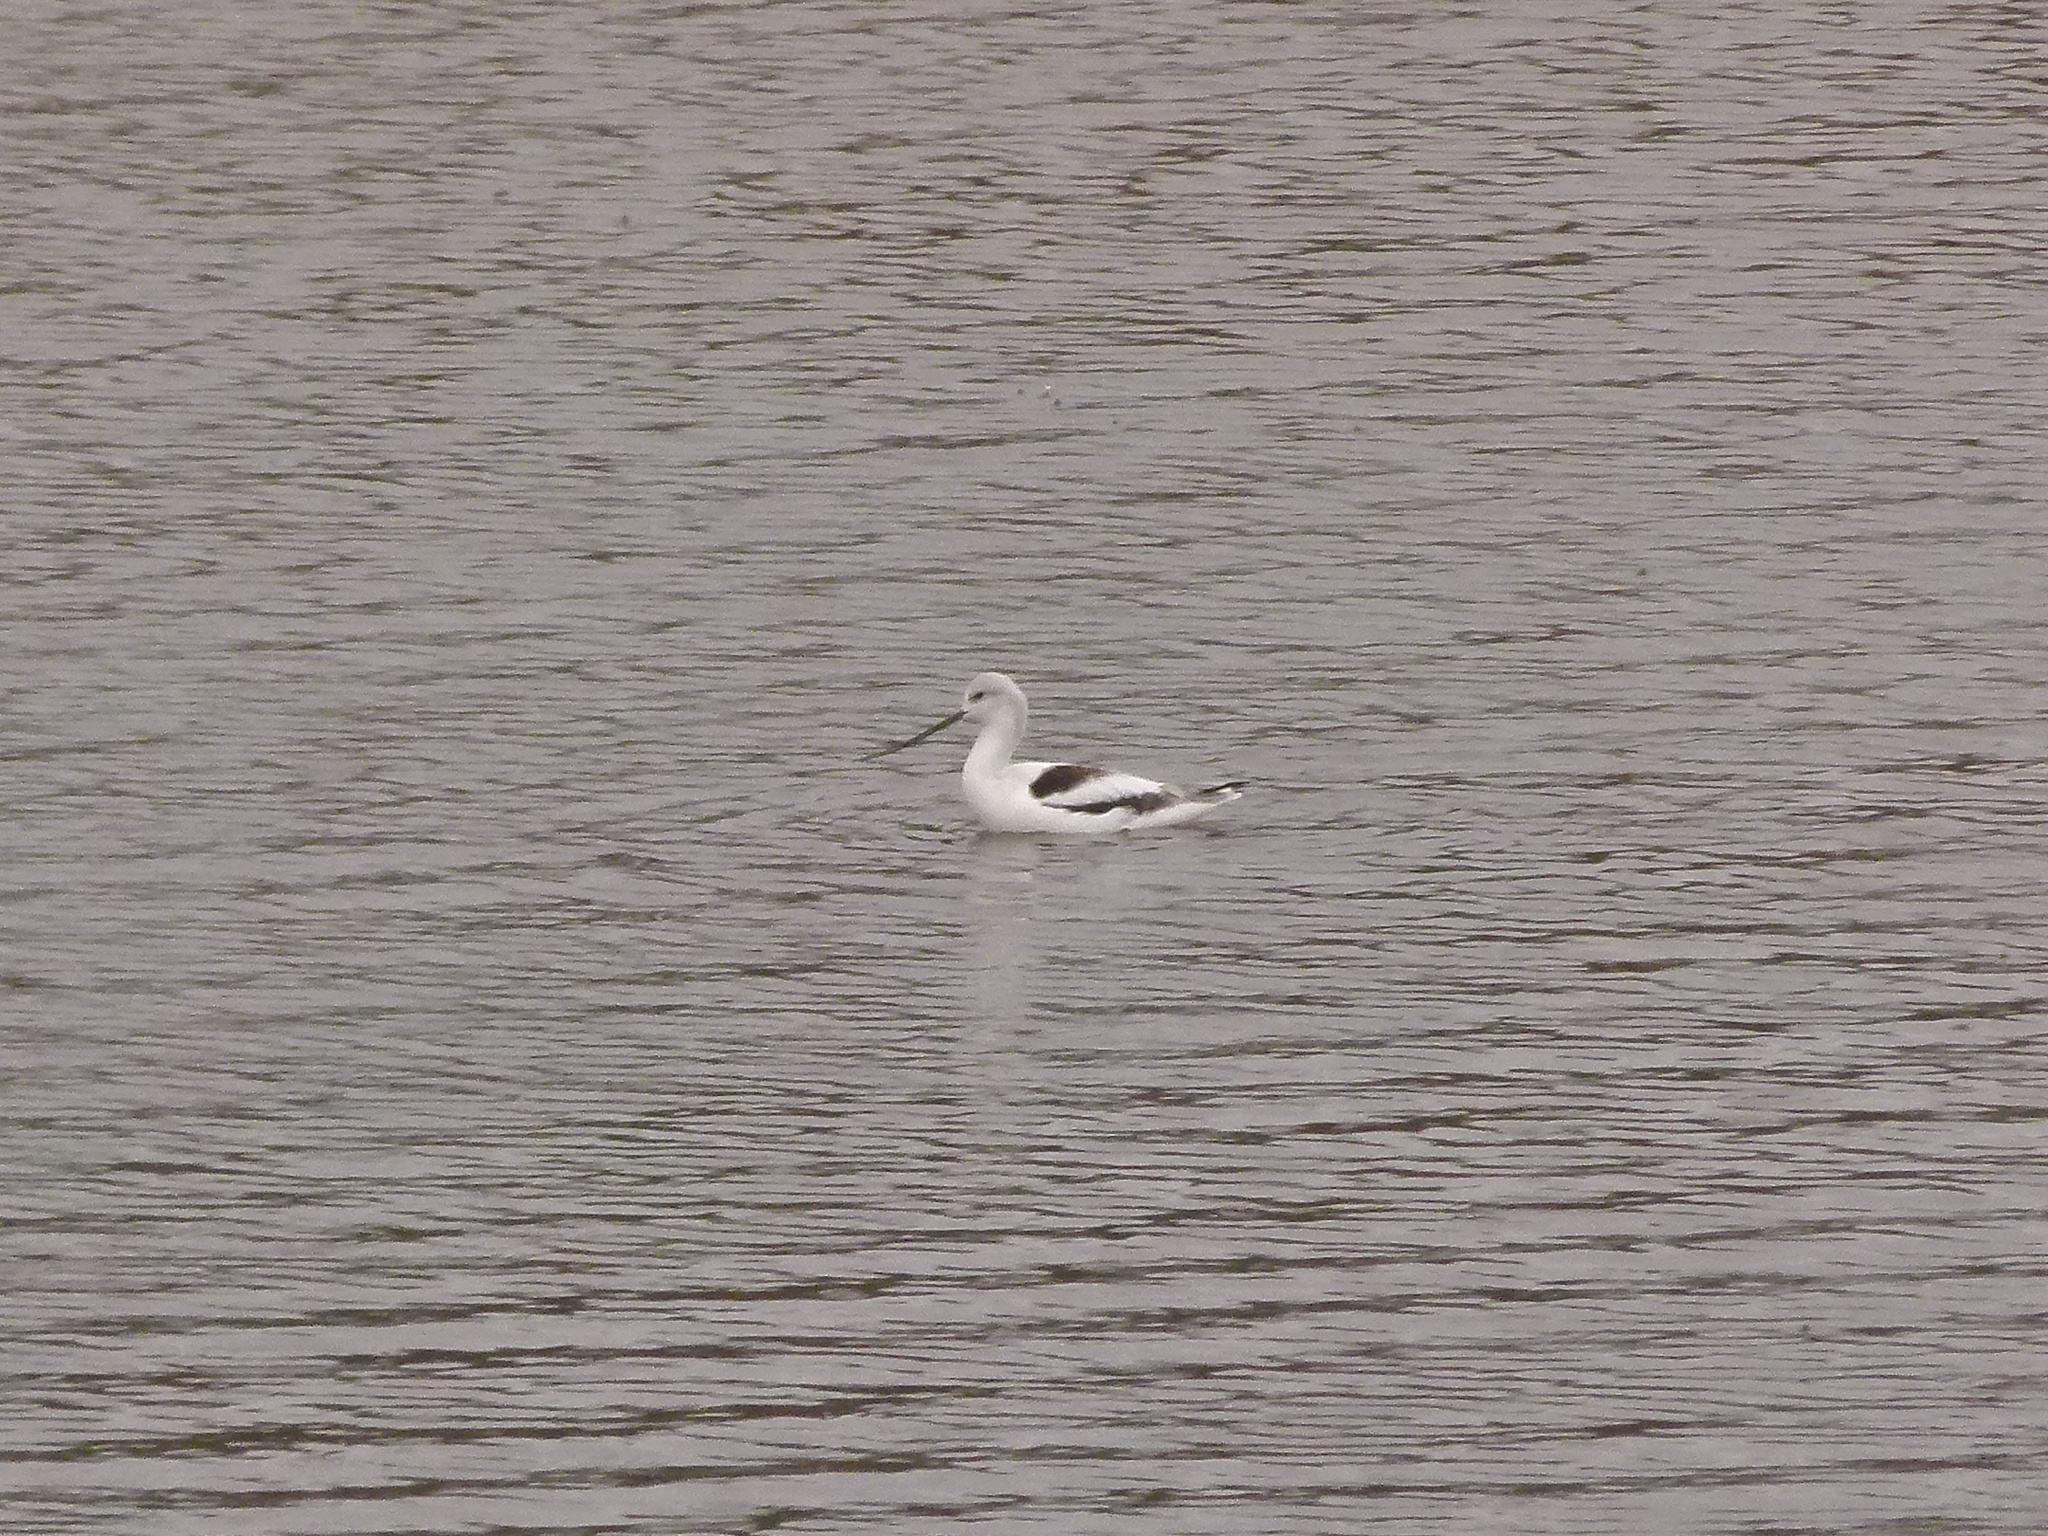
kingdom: Animalia
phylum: Chordata
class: Aves
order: Charadriiformes
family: Recurvirostridae
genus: Recurvirostra
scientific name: Recurvirostra americana
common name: American avocet
